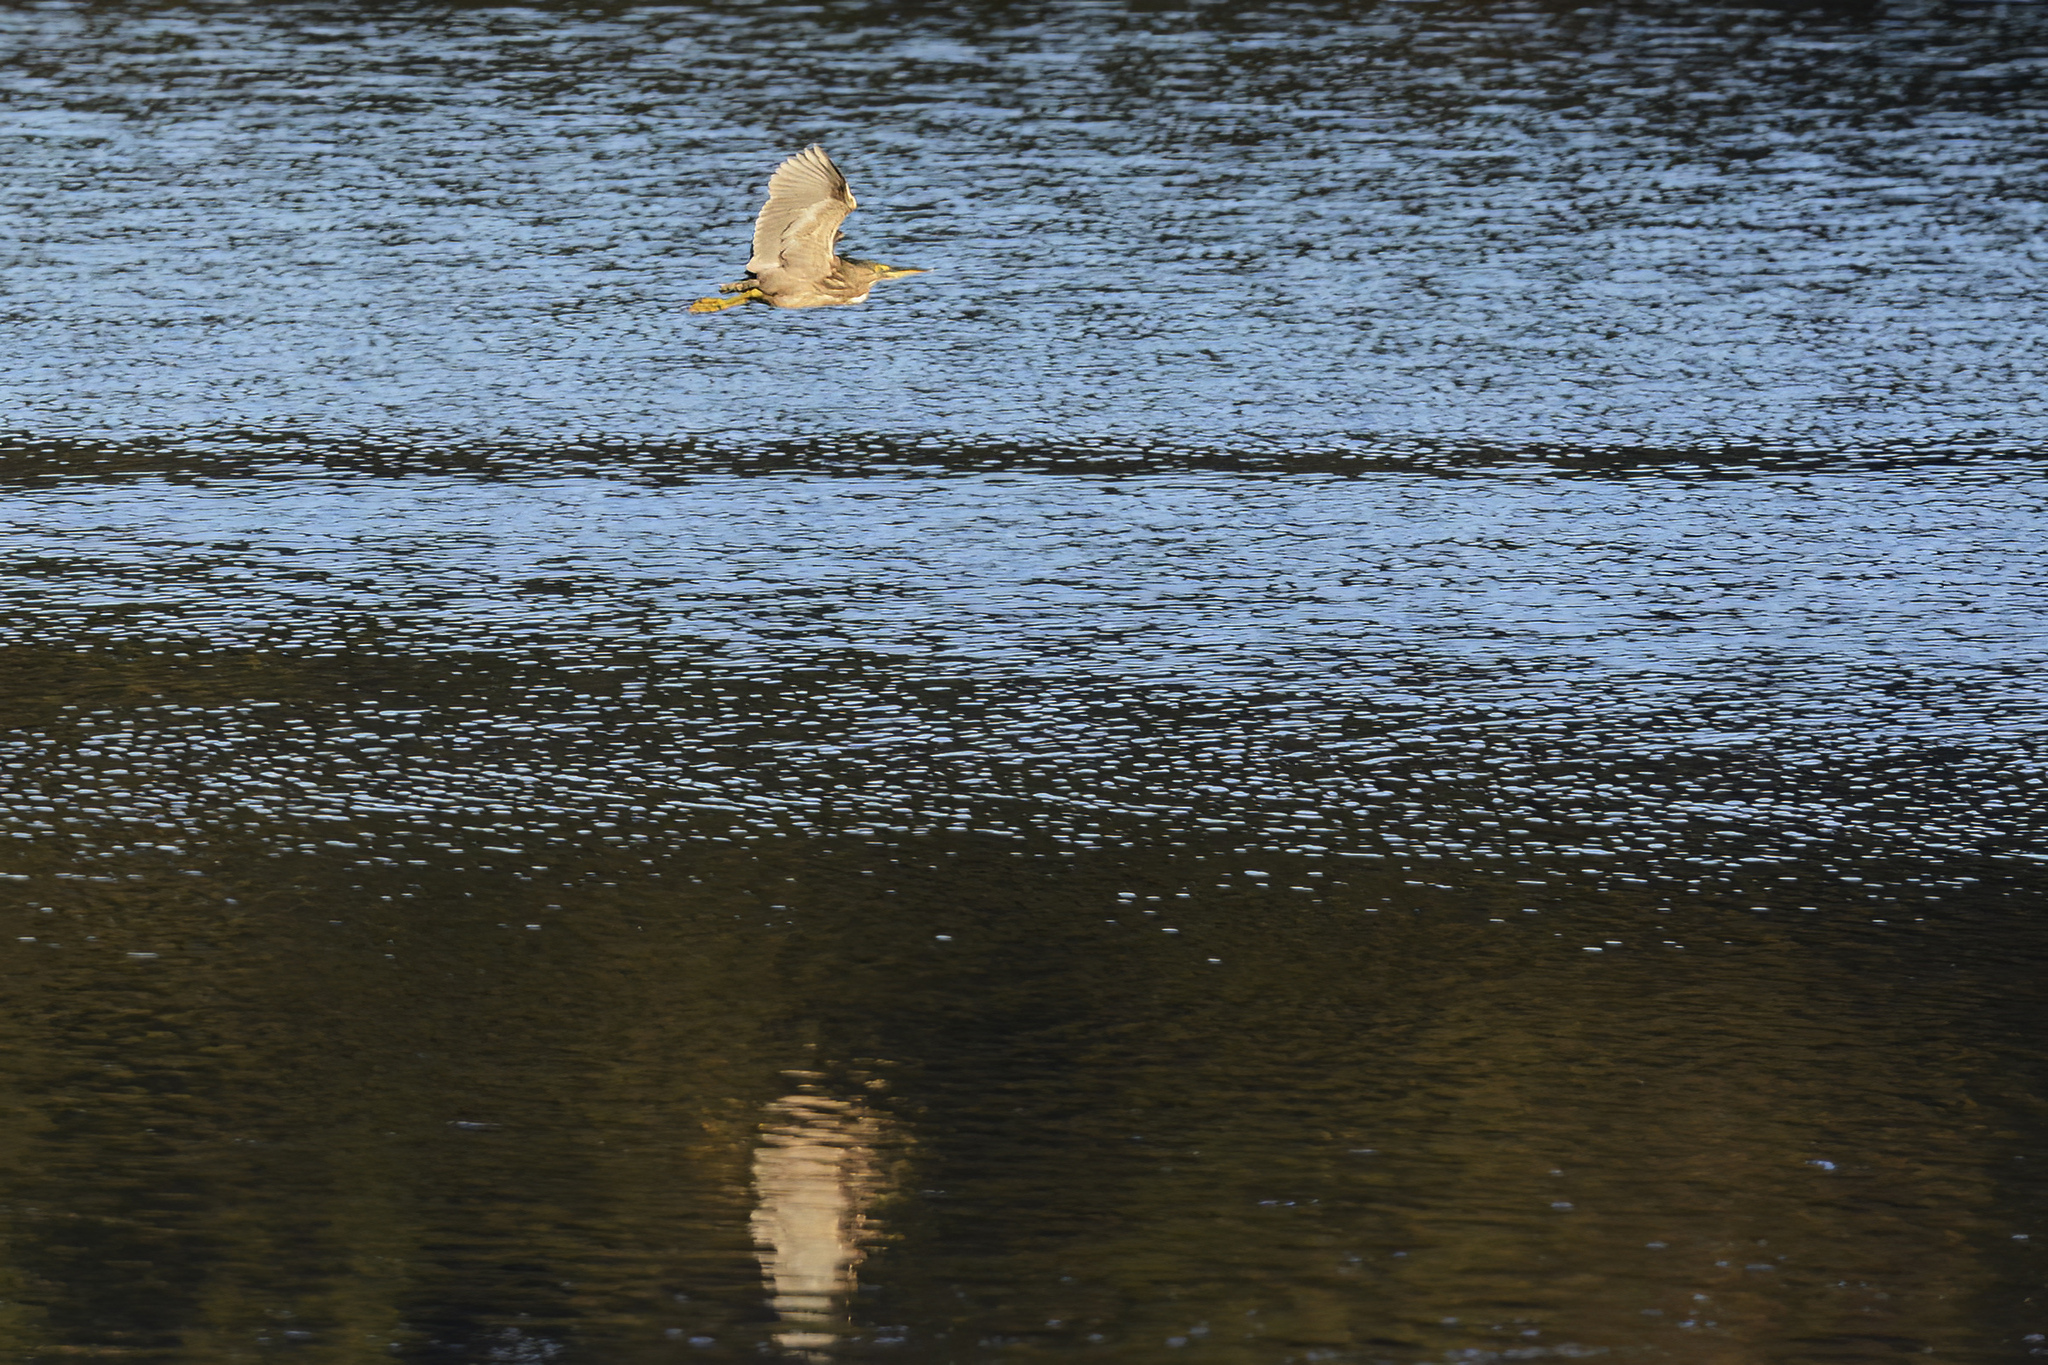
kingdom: Animalia
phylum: Chordata
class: Aves
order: Pelecaniformes
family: Ardeidae
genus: Butorides
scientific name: Butorides striata
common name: Striated heron
